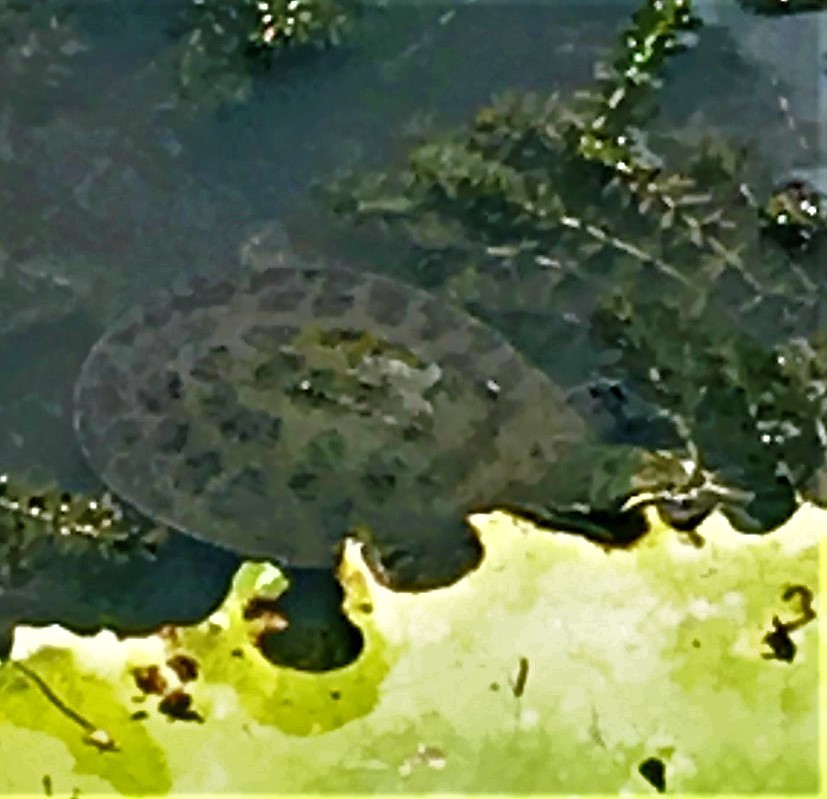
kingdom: Animalia
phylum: Chordata
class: Testudines
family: Trionychidae
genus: Apalone
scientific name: Apalone ferox
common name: Florida softshell turtle
